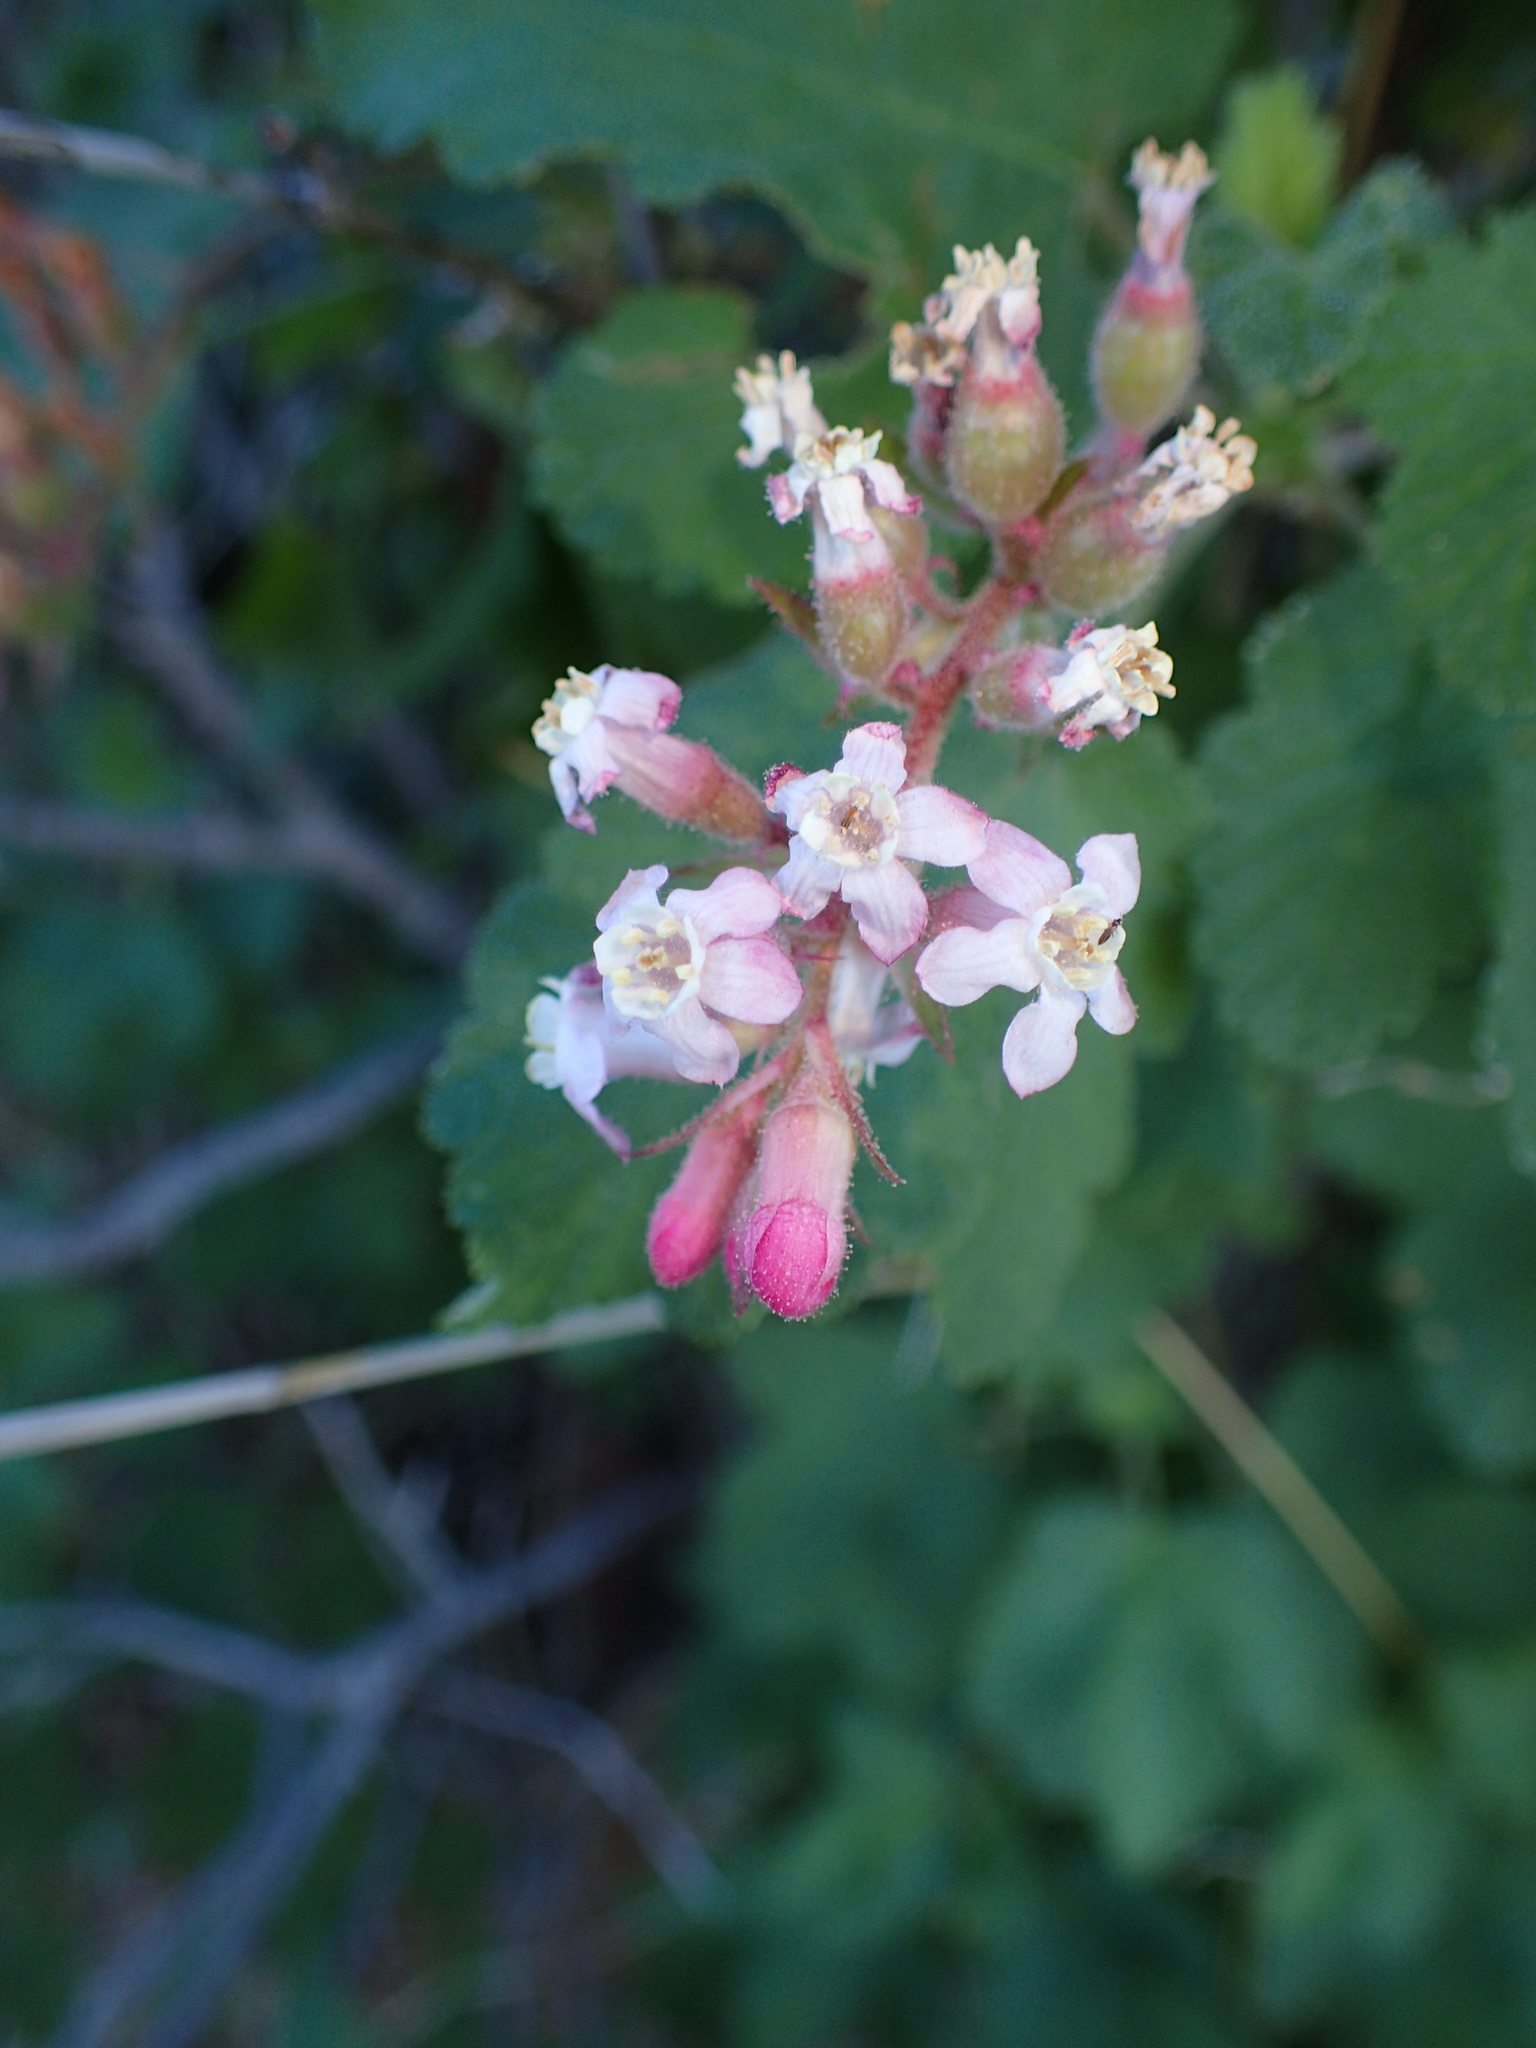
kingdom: Plantae
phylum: Tracheophyta
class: Magnoliopsida
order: Saxifragales
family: Grossulariaceae
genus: Ribes
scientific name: Ribes malvaceum
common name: Chaparral currant
